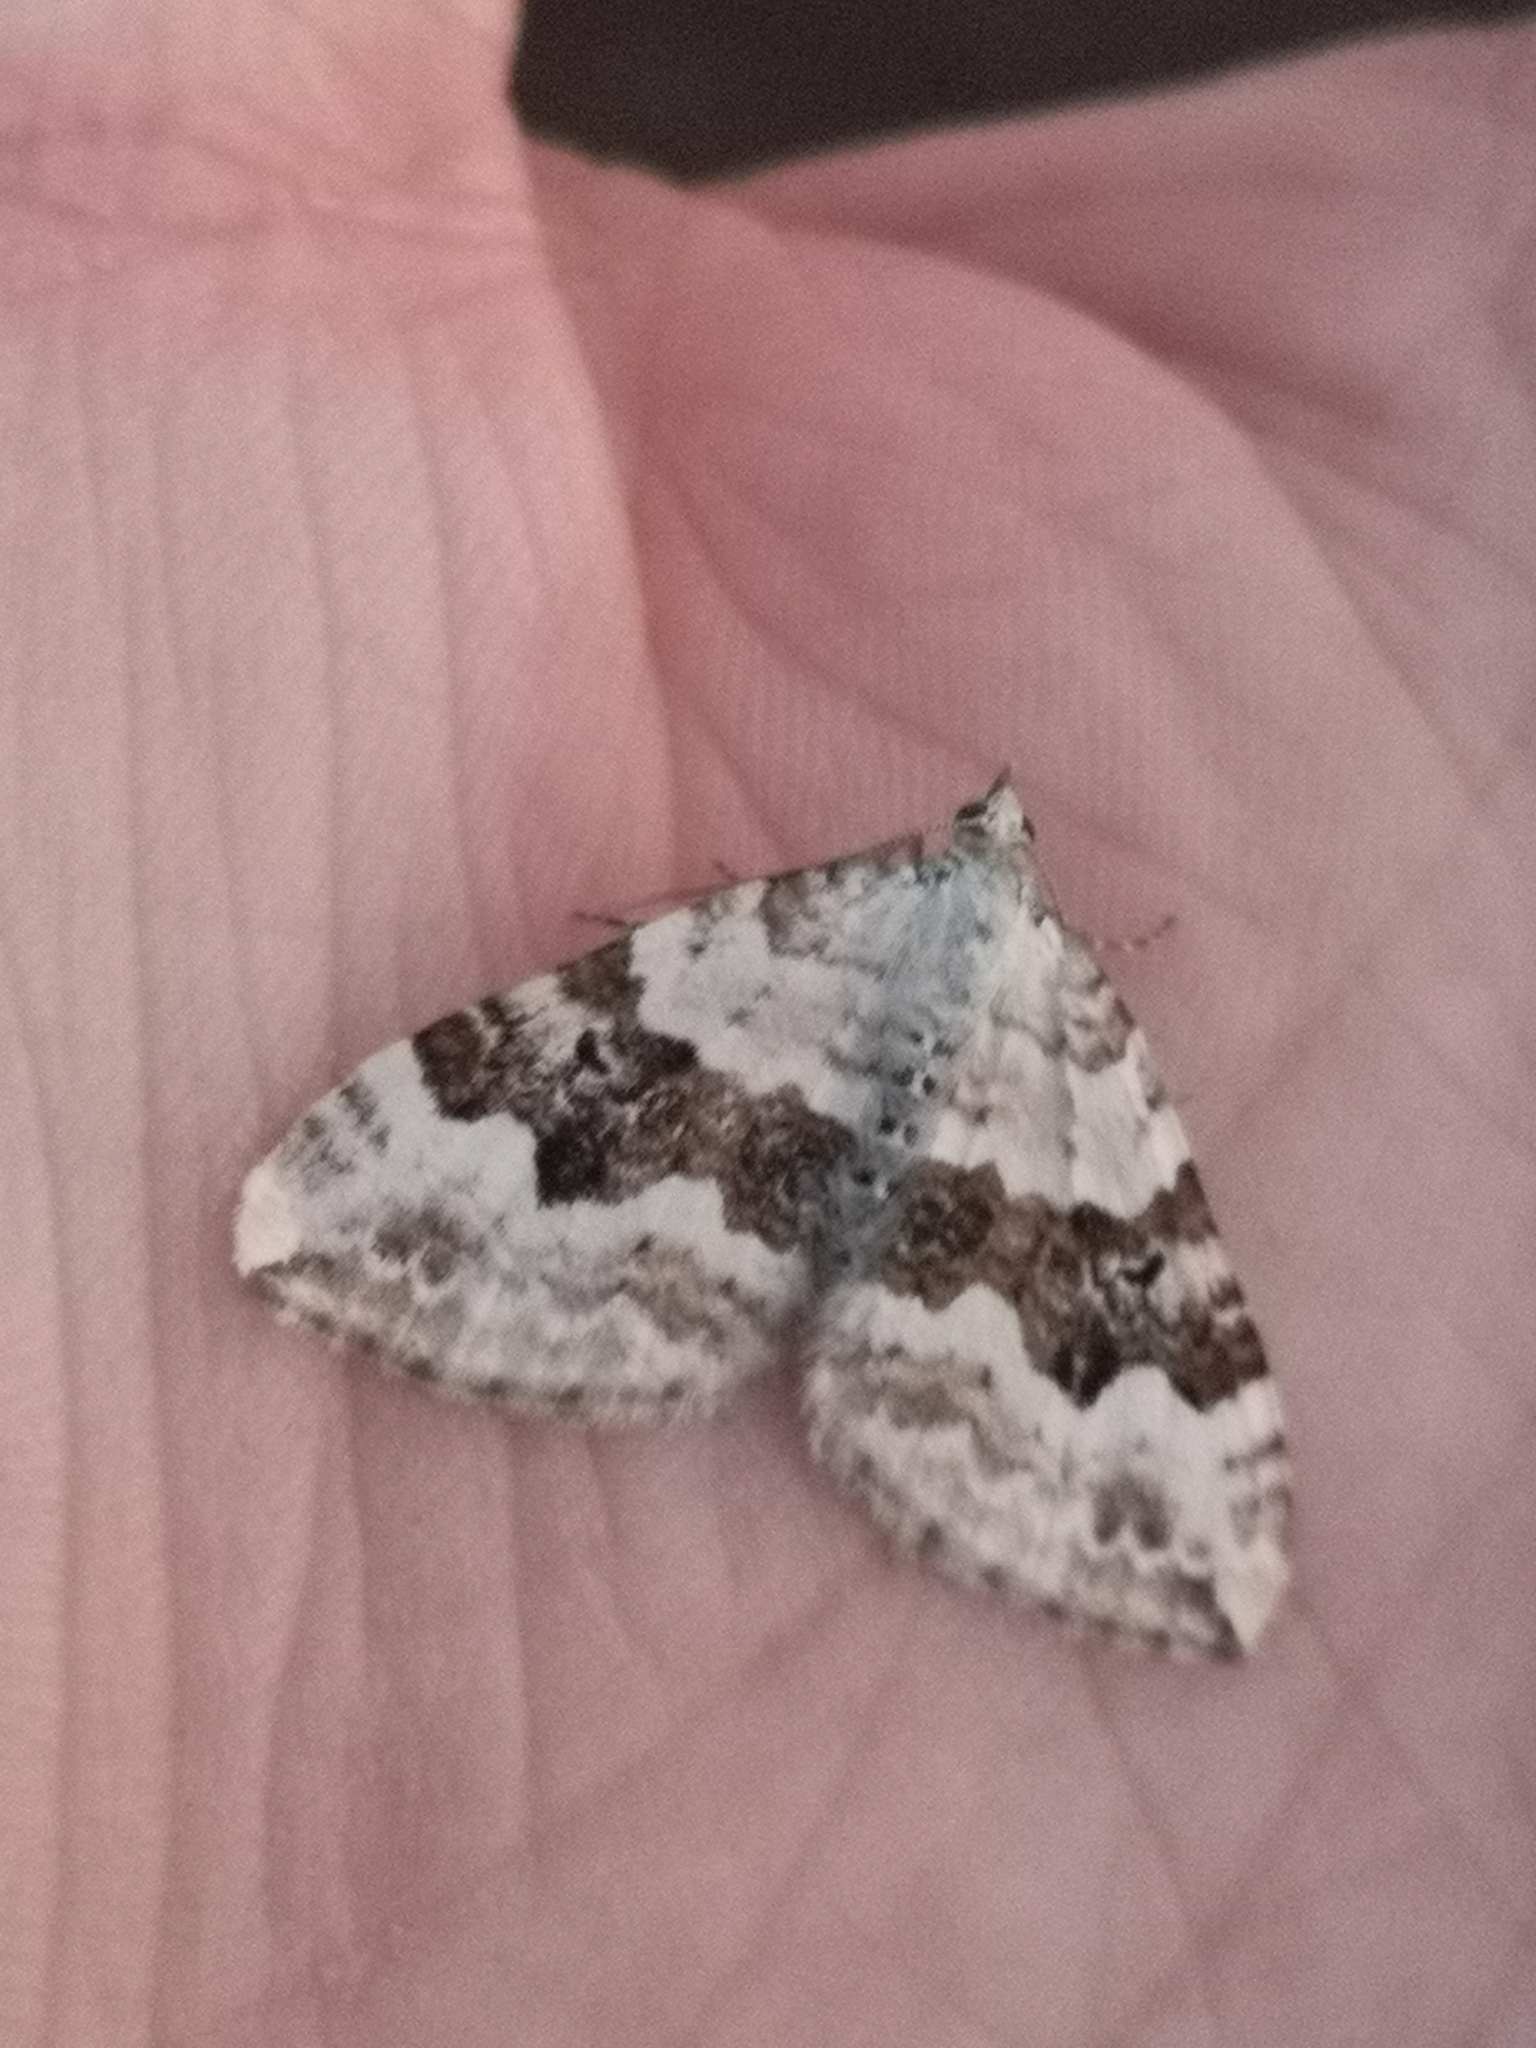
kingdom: Animalia
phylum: Arthropoda
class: Insecta
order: Lepidoptera
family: Geometridae
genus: Xanthorhoe
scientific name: Xanthorhoe montanata
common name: Silver-ground carpet
